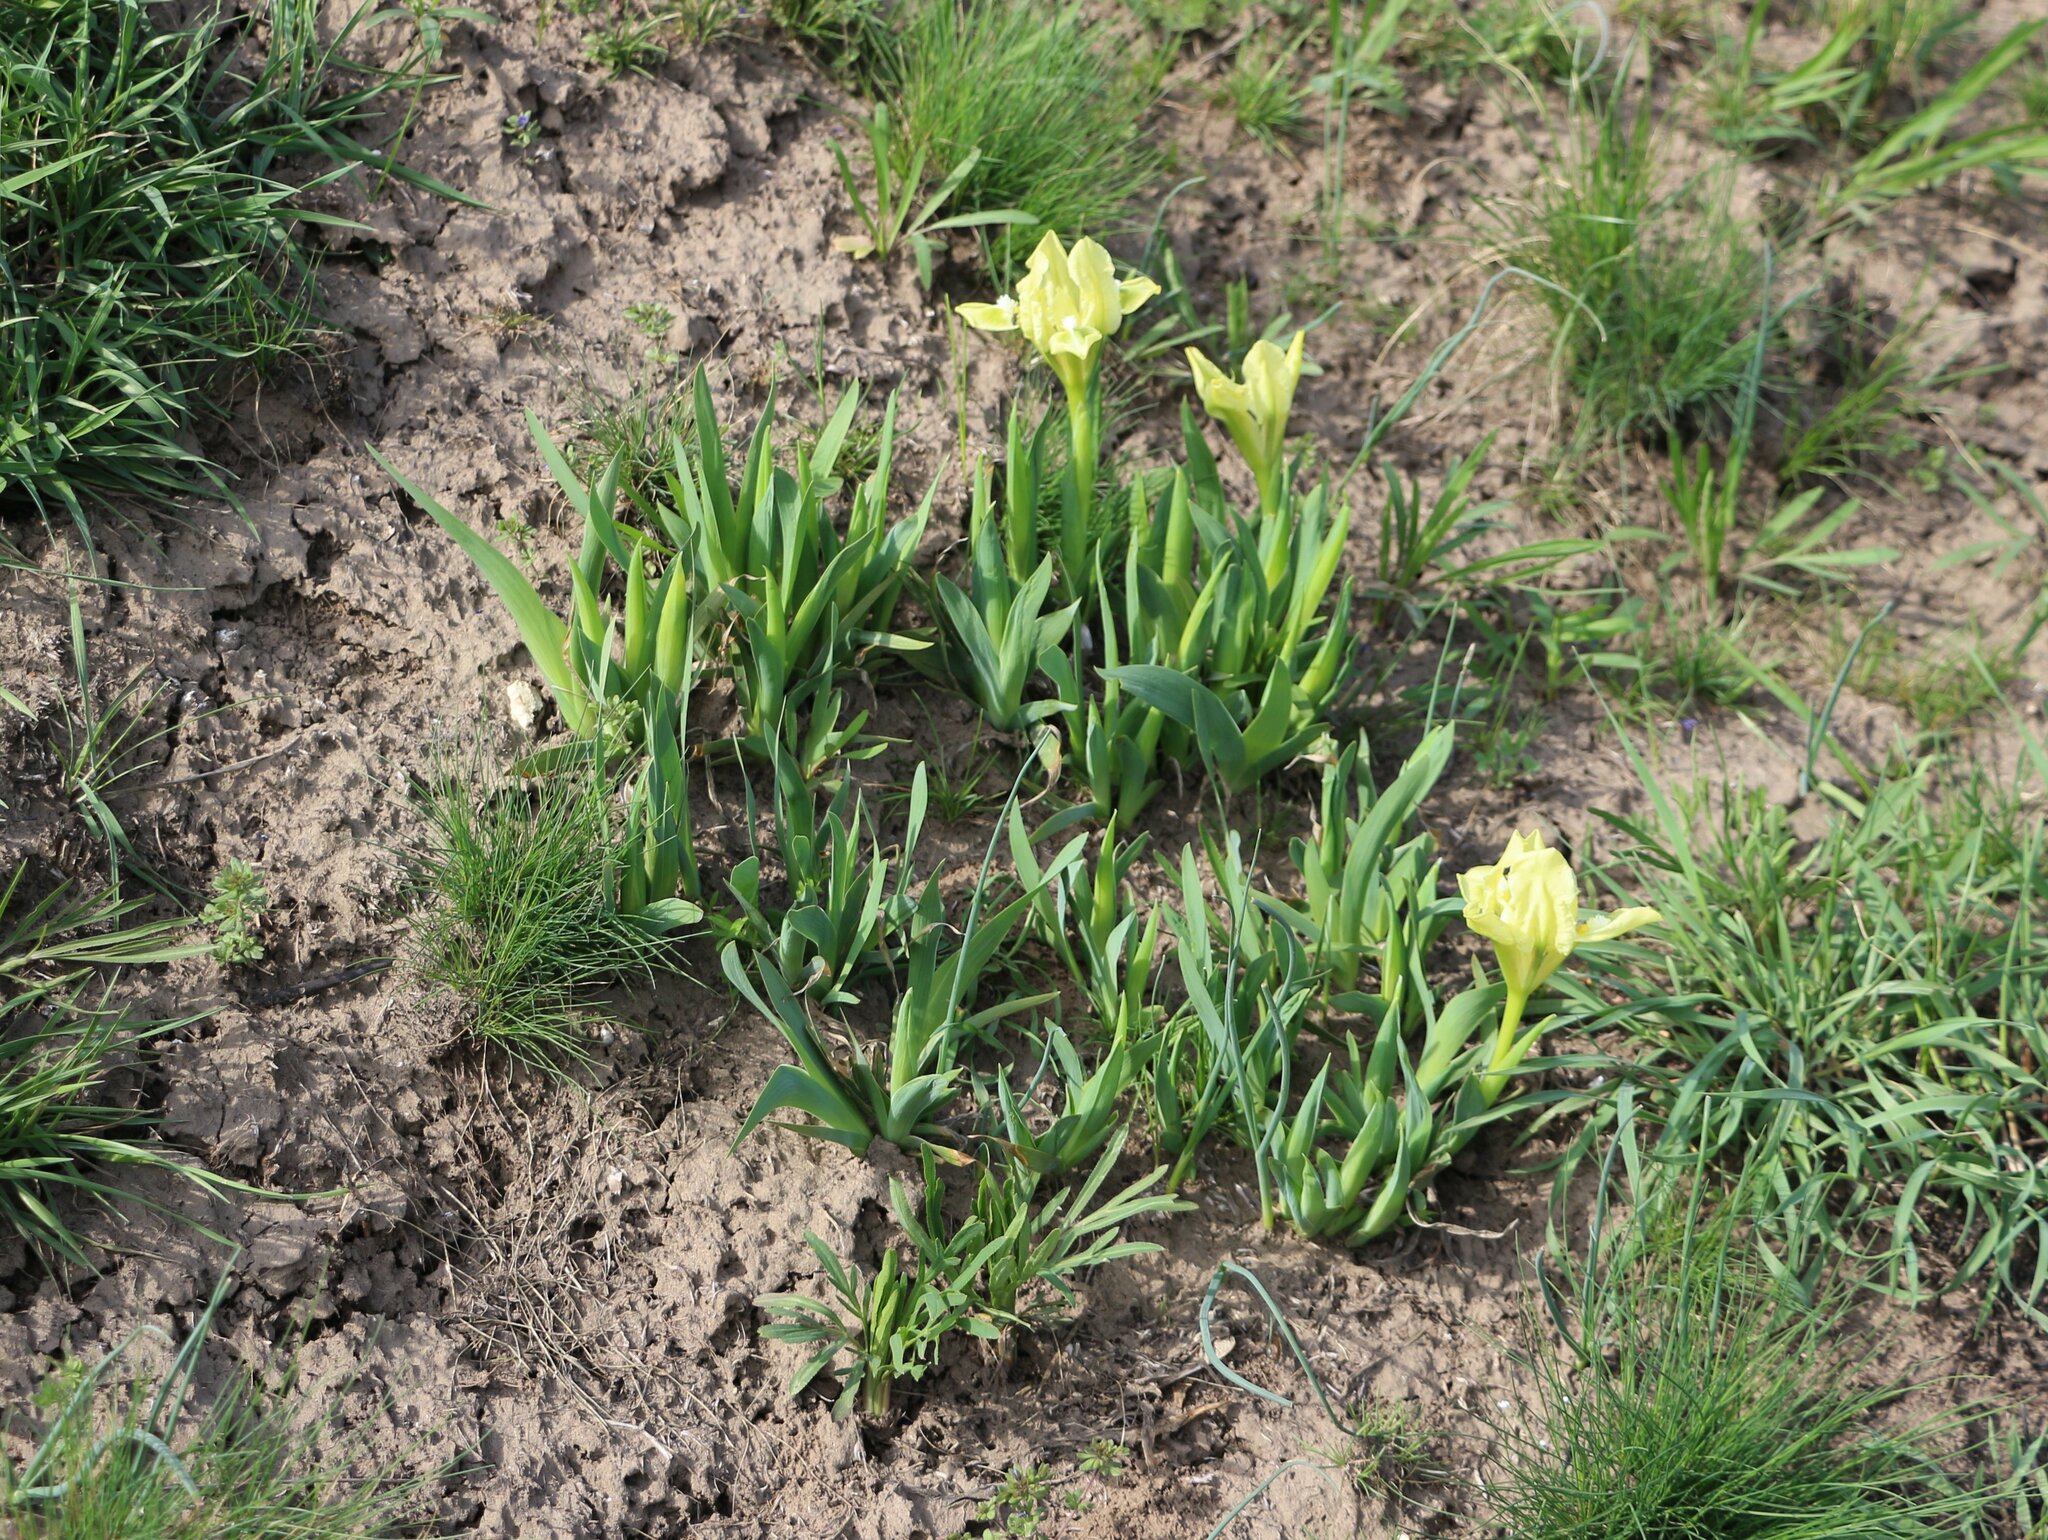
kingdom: Plantae
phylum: Tracheophyta
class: Liliopsida
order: Asparagales
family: Iridaceae
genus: Iris
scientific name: Iris pumila
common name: Dwarf iris
